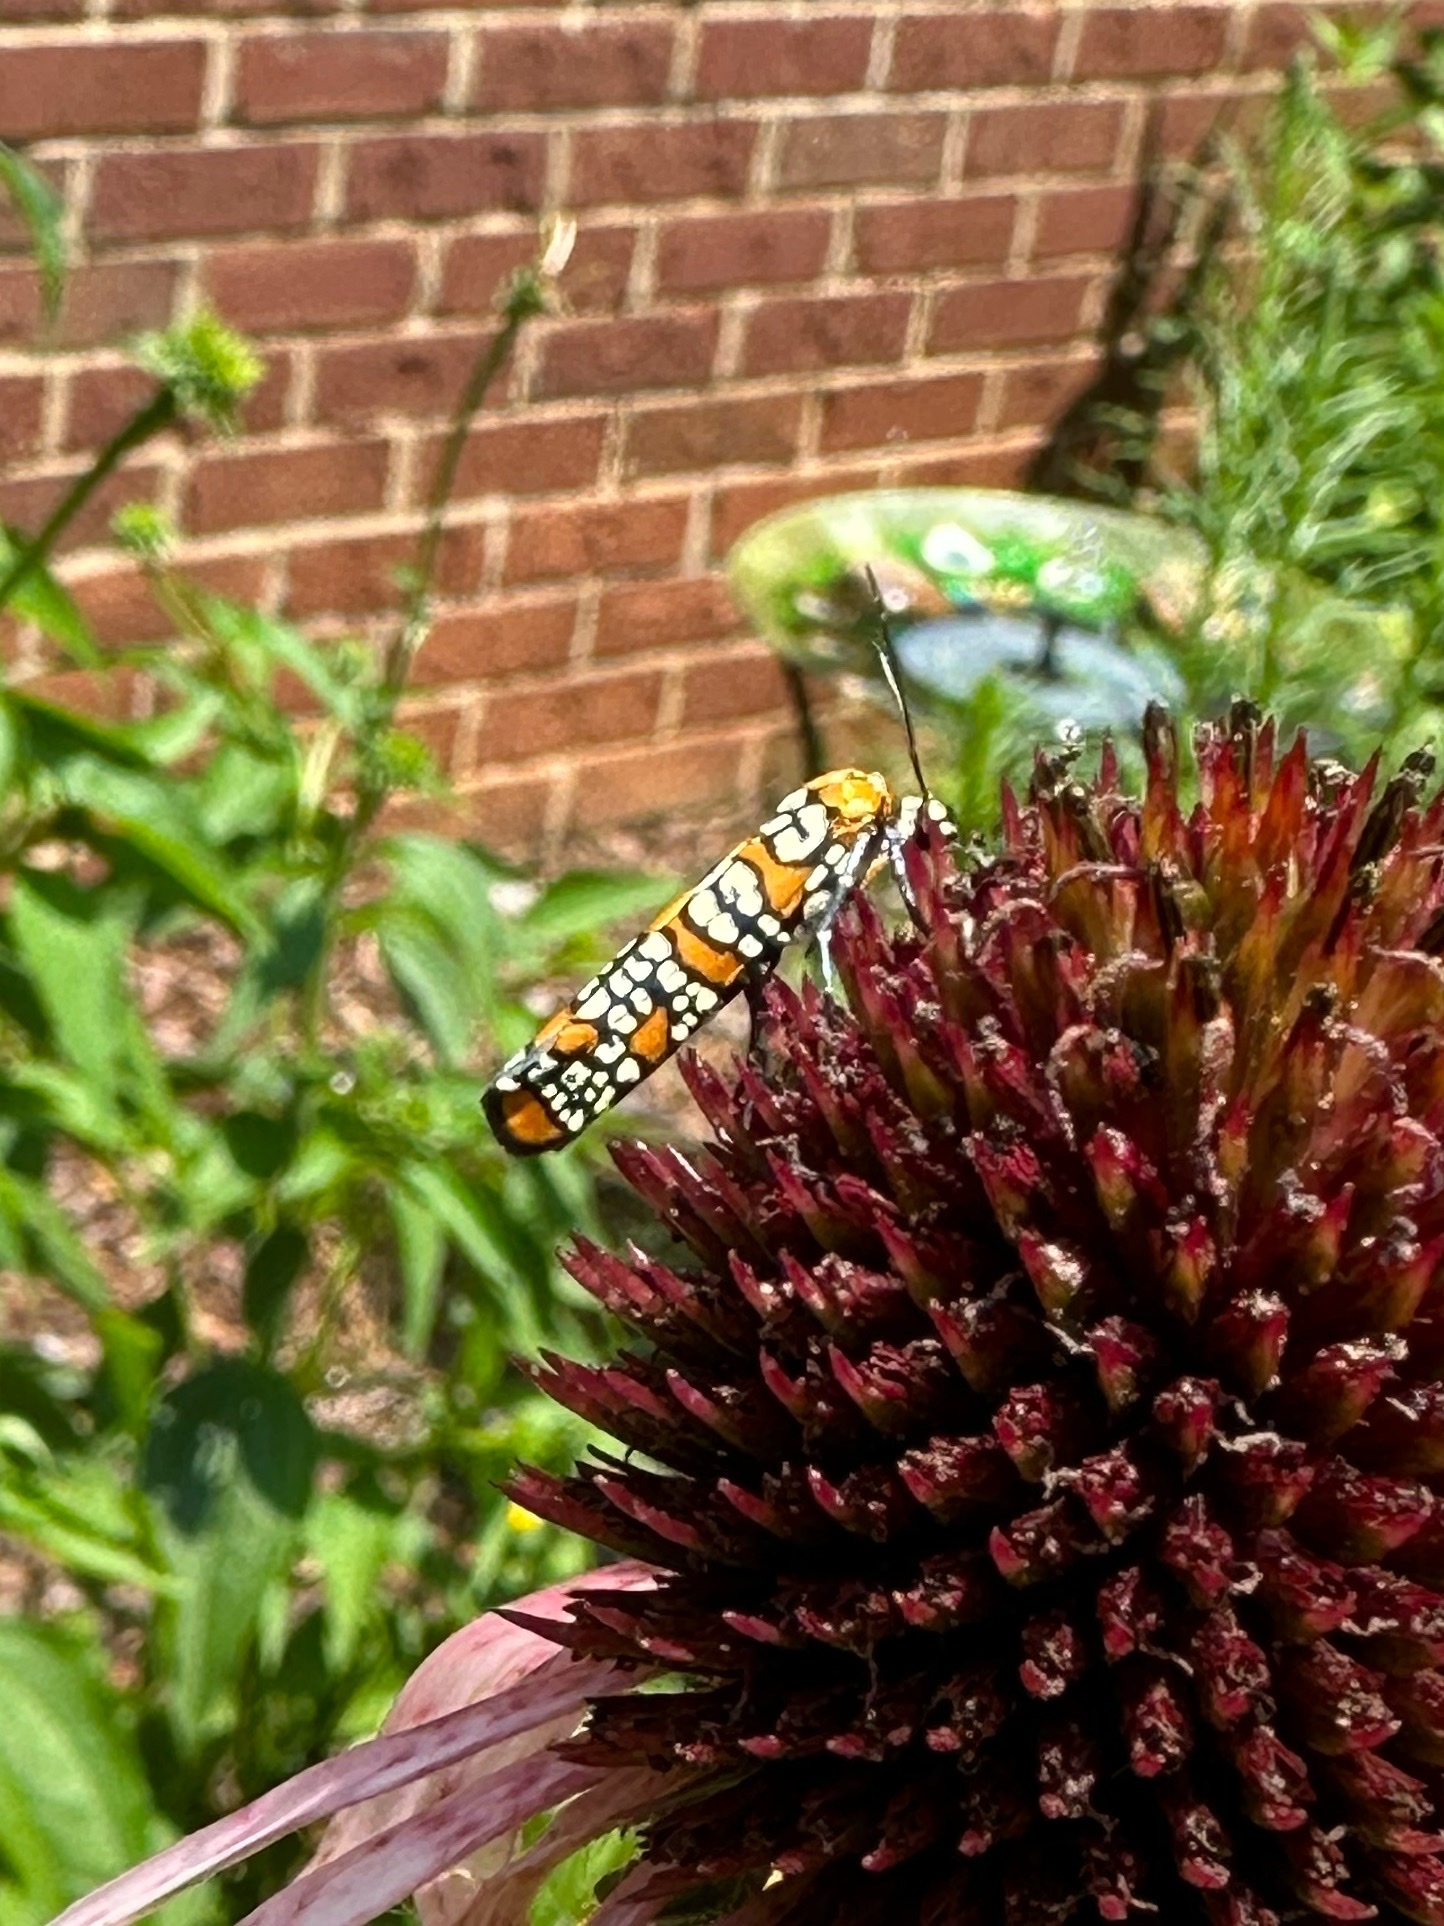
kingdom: Animalia
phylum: Arthropoda
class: Insecta
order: Lepidoptera
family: Attevidae
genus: Atteva
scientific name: Atteva punctella
